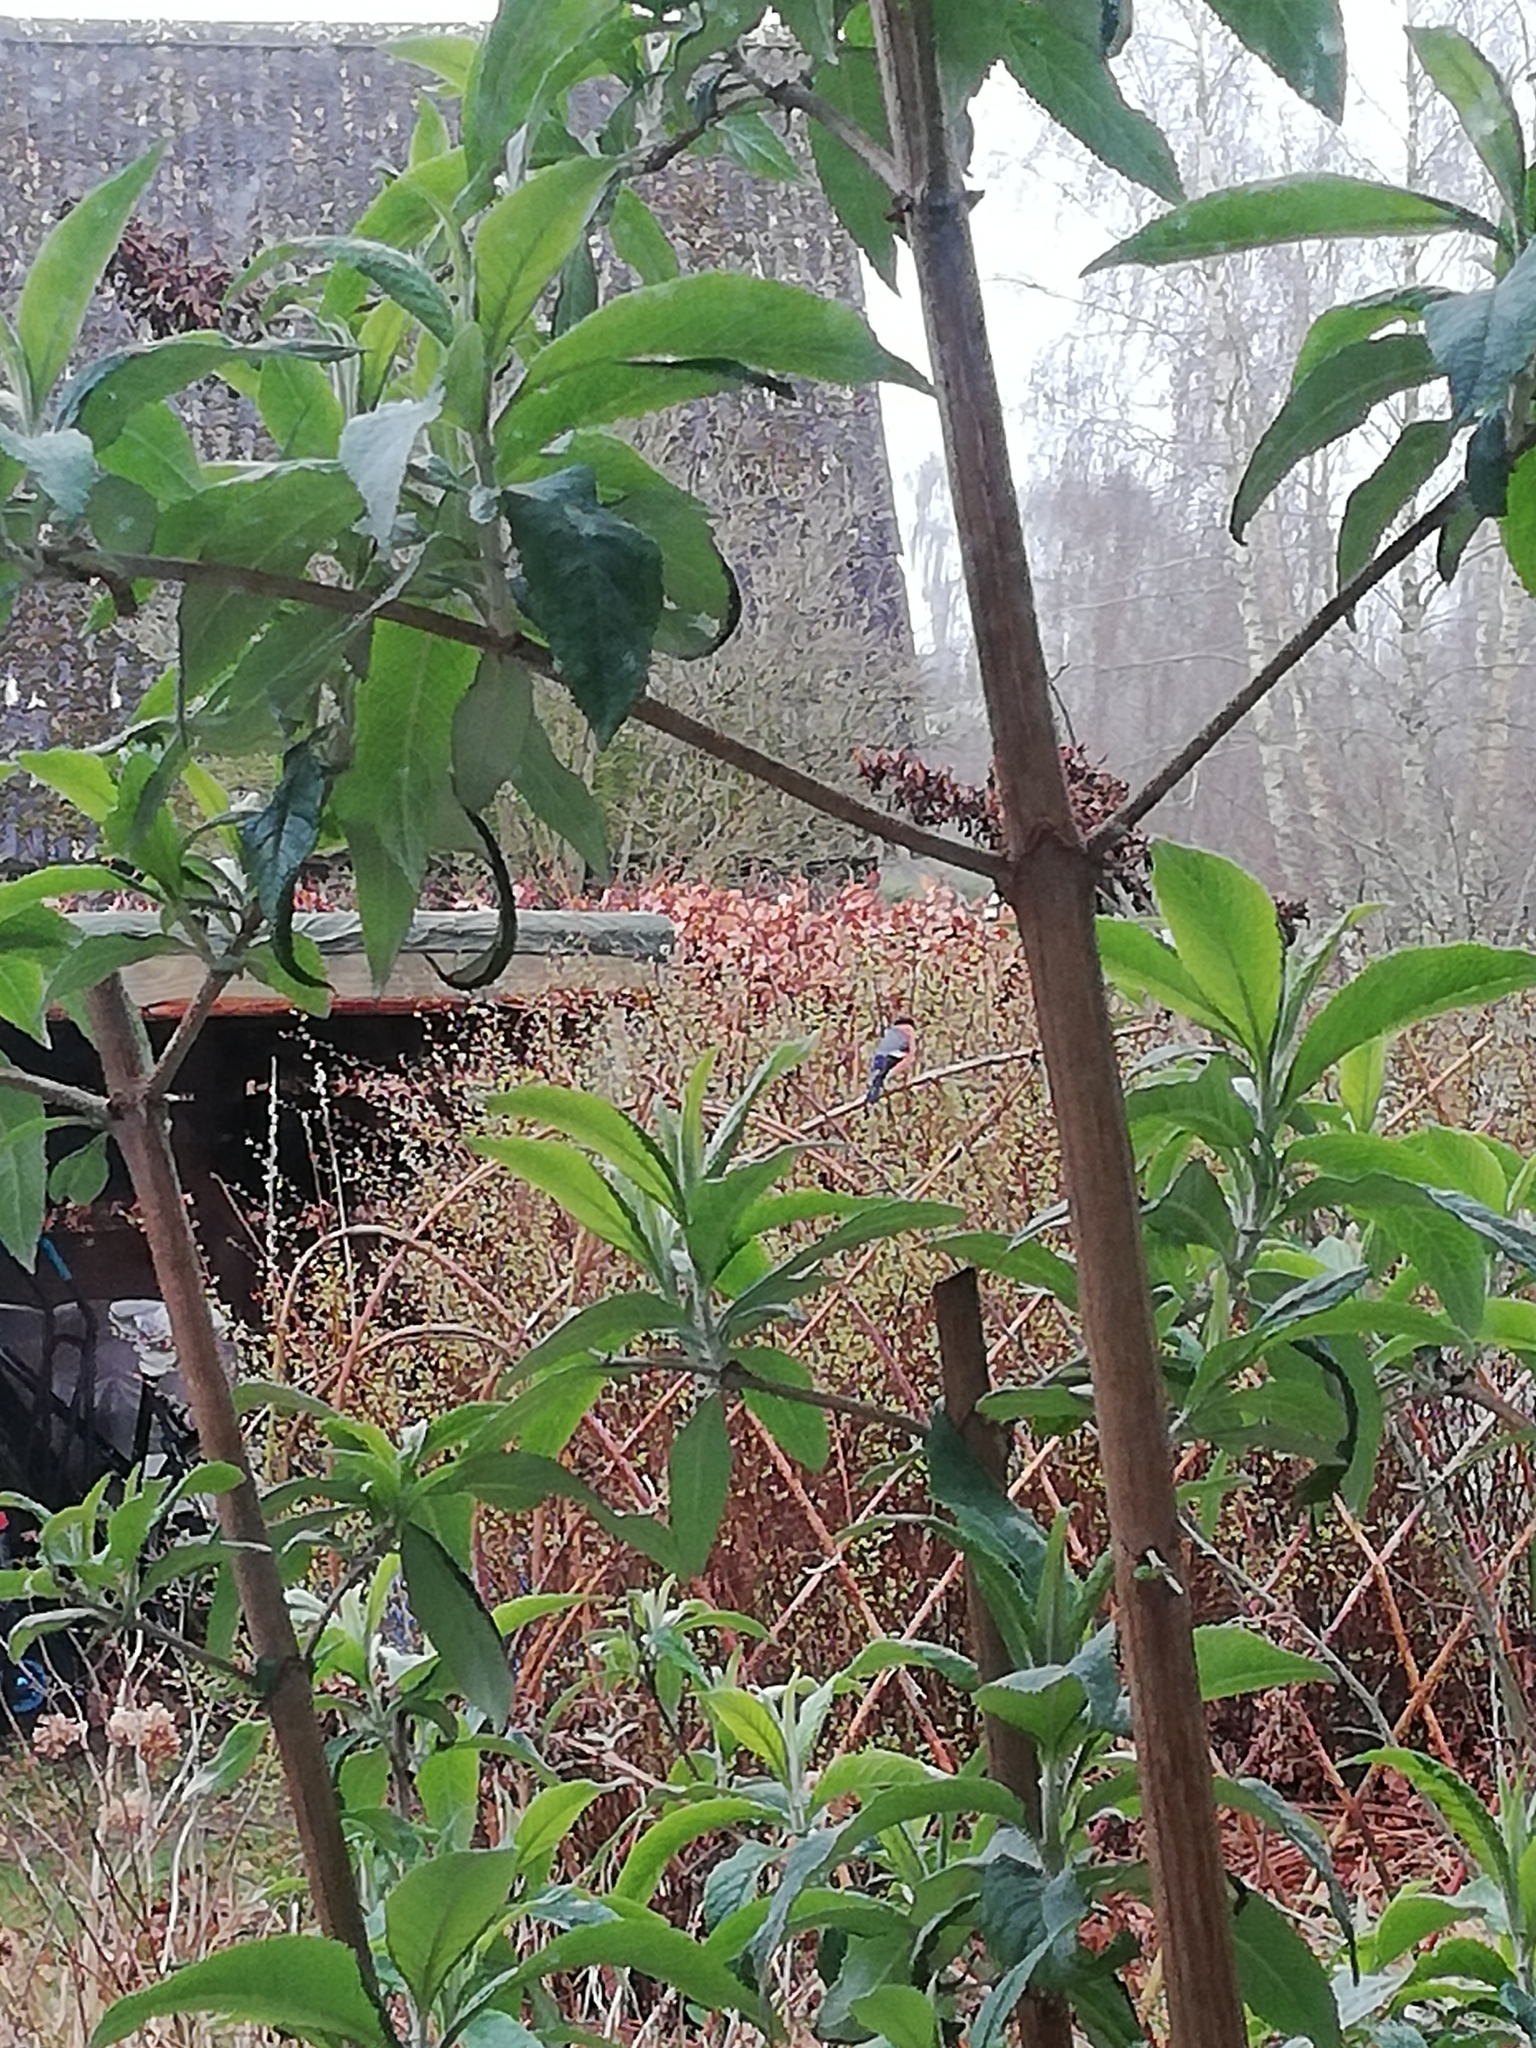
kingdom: Animalia
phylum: Chordata
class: Aves
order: Passeriformes
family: Fringillidae
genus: Pyrrhula
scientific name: Pyrrhula pyrrhula
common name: Eurasian bullfinch
